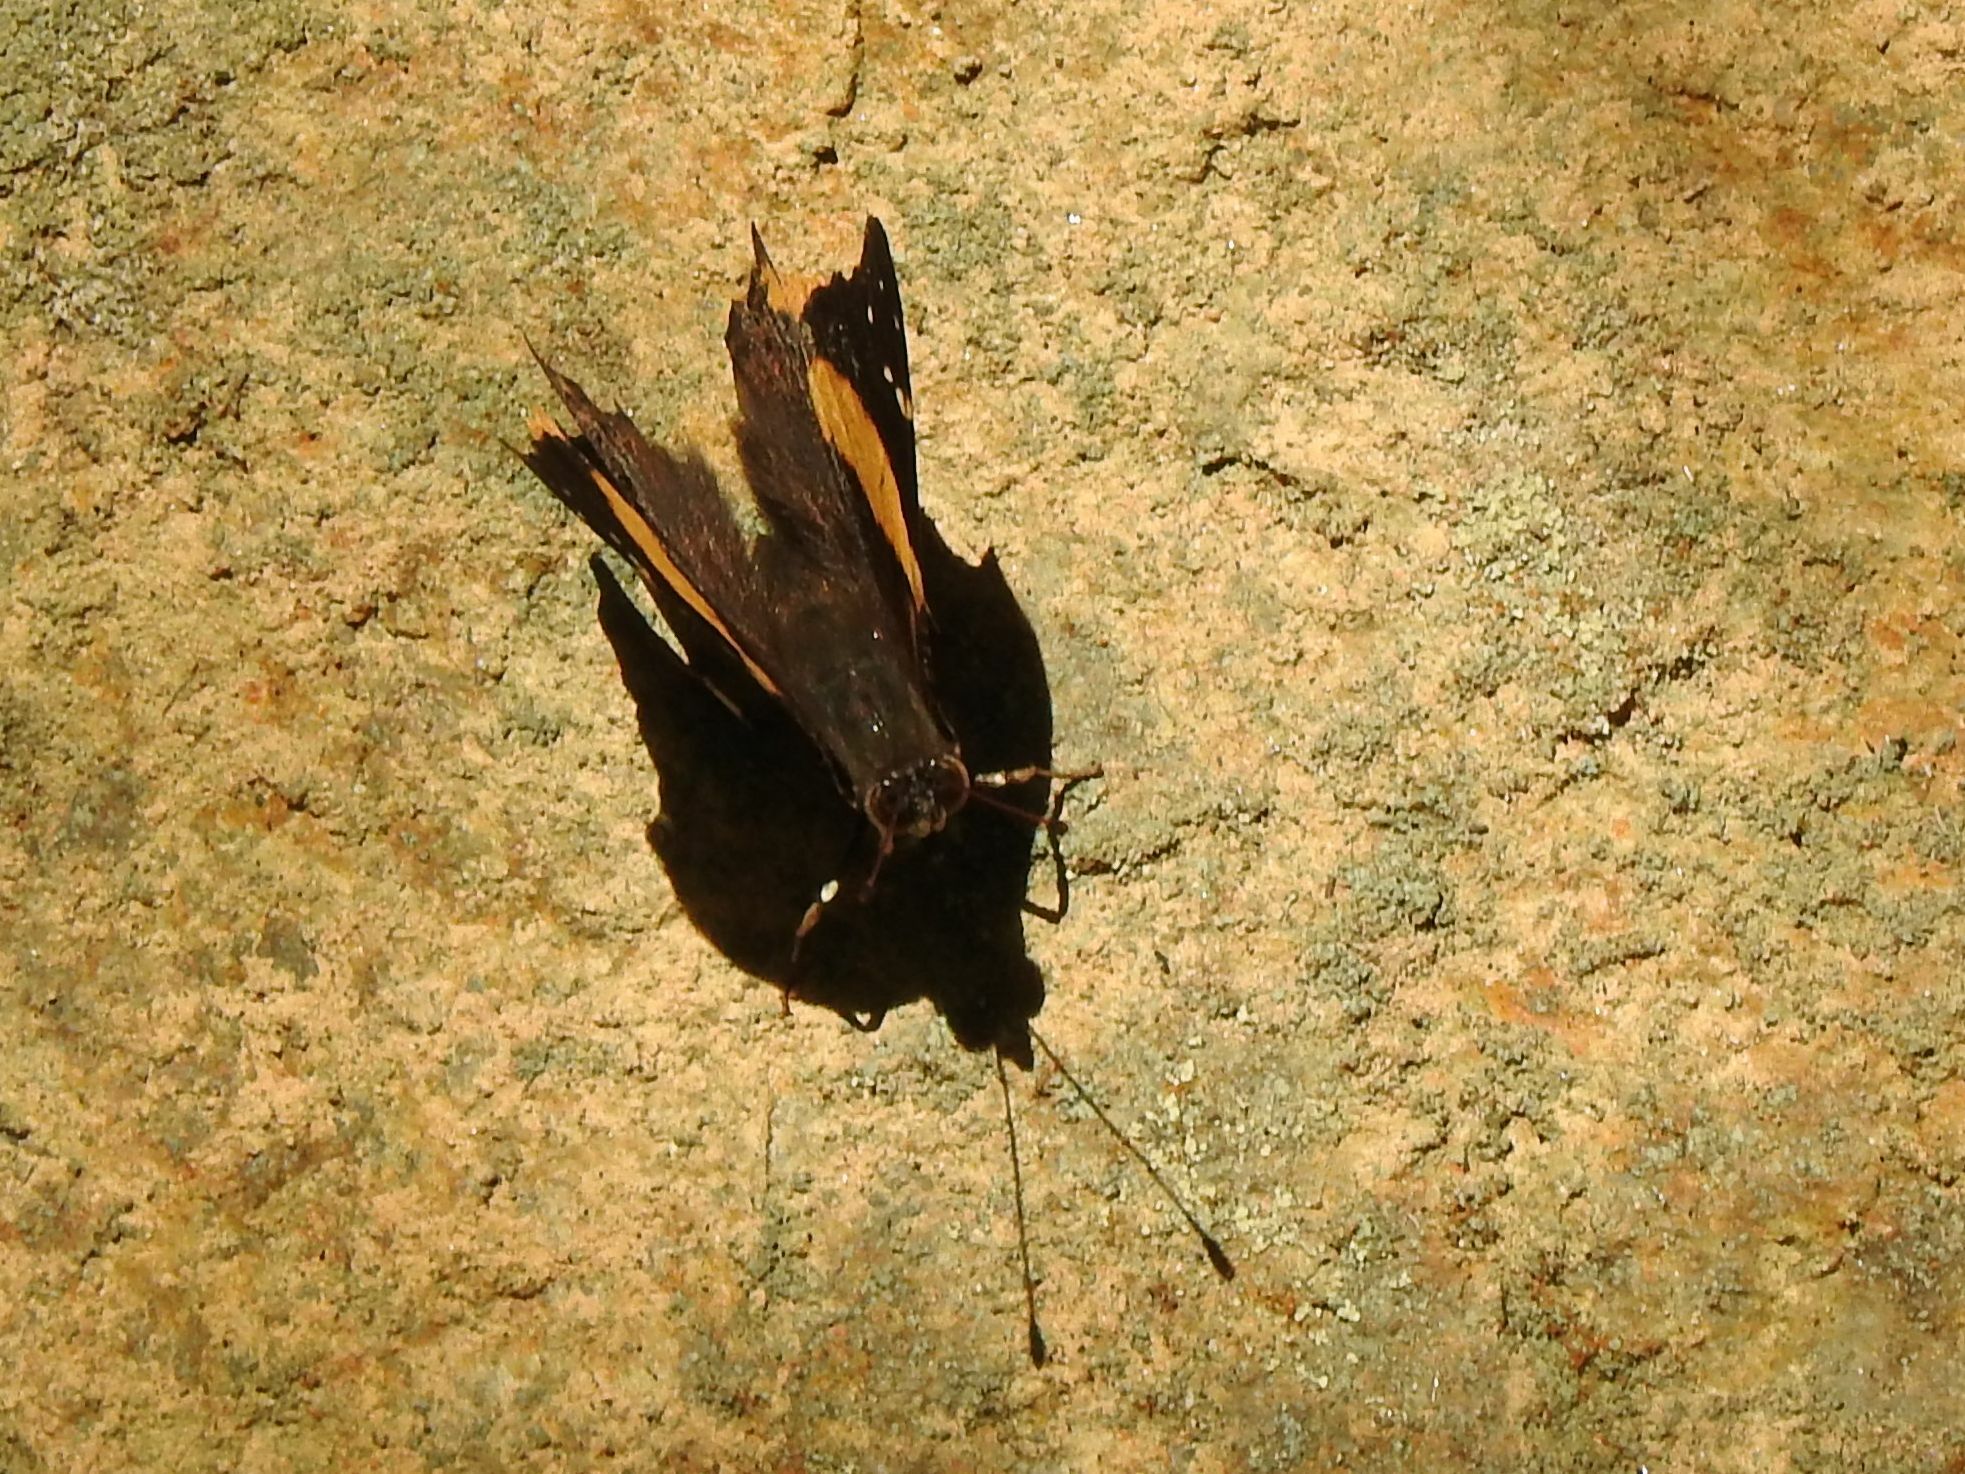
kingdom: Animalia
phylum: Arthropoda
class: Insecta
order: Lepidoptera
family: Nymphalidae
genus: Antanartia
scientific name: Antanartia dimorphica
